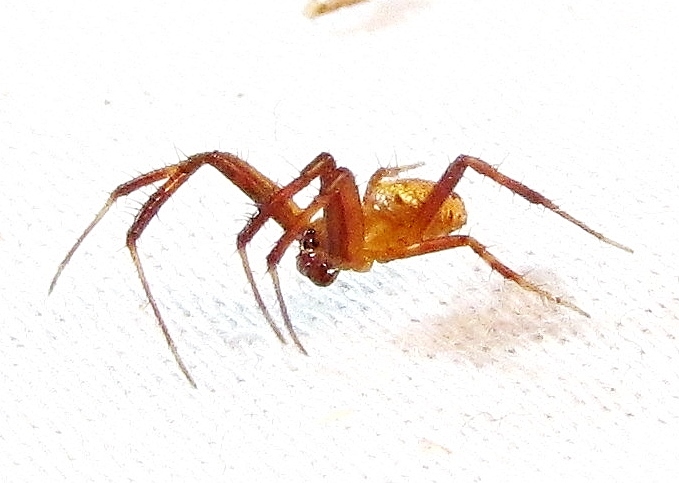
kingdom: Animalia
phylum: Arthropoda
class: Arachnida
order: Araneae
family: Araneidae
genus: Gea
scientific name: Gea heptagon
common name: Orb weavers
